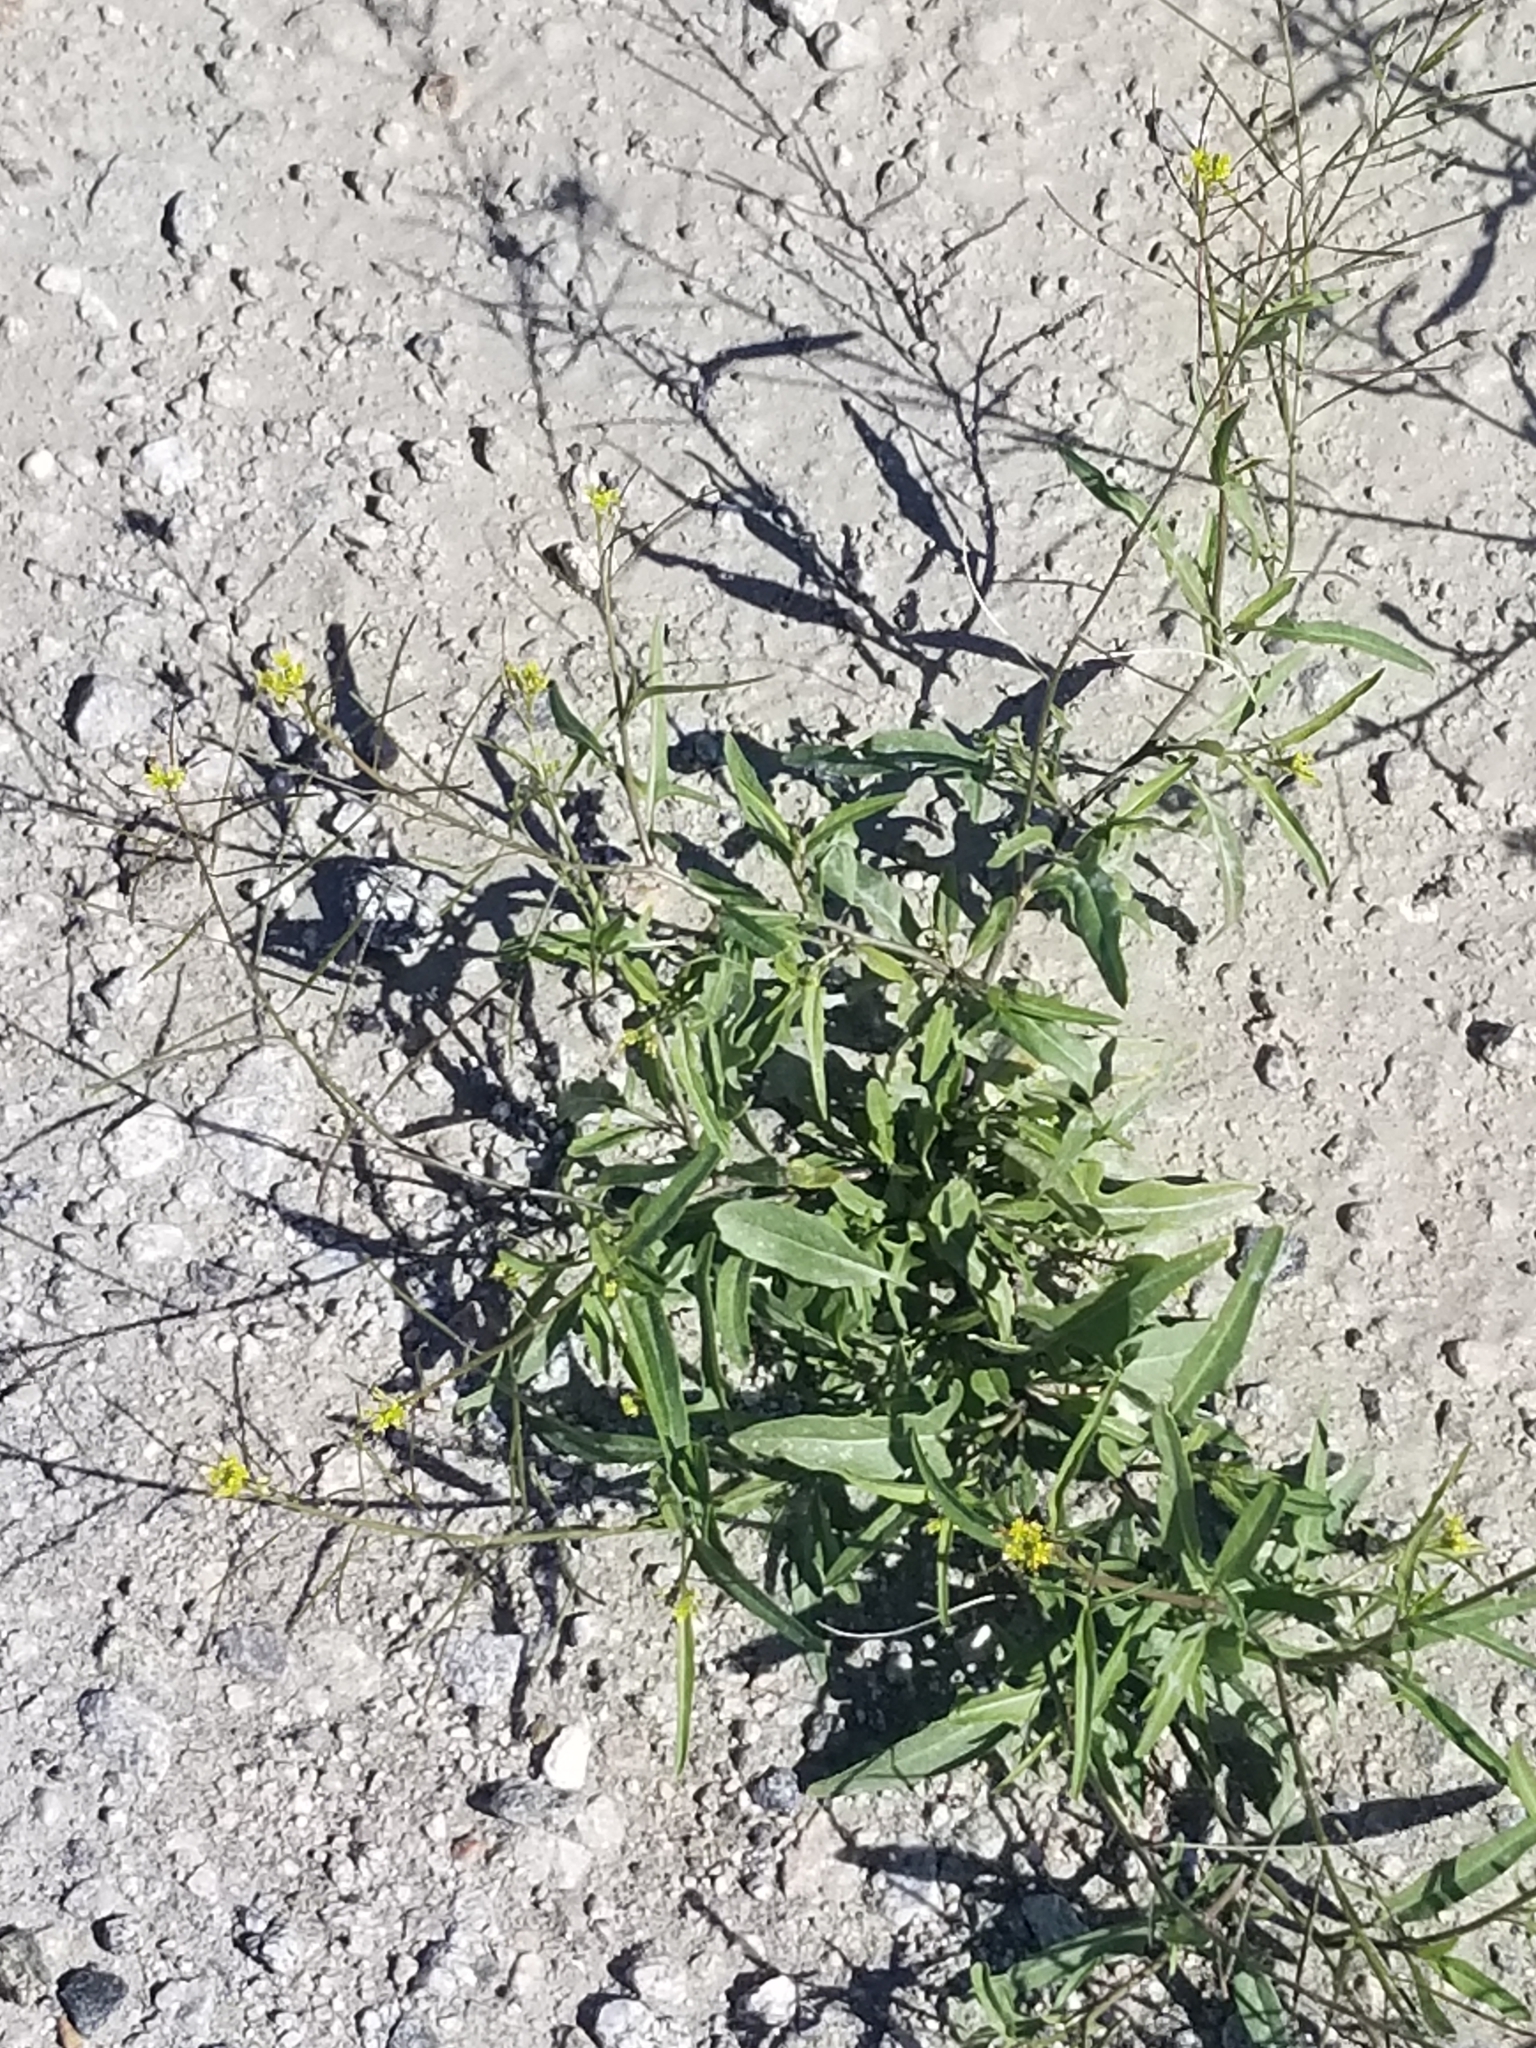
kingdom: Plantae
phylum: Tracheophyta
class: Magnoliopsida
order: Brassicales
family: Brassicaceae
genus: Sisymbrium
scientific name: Sisymbrium irio
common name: London rocket
